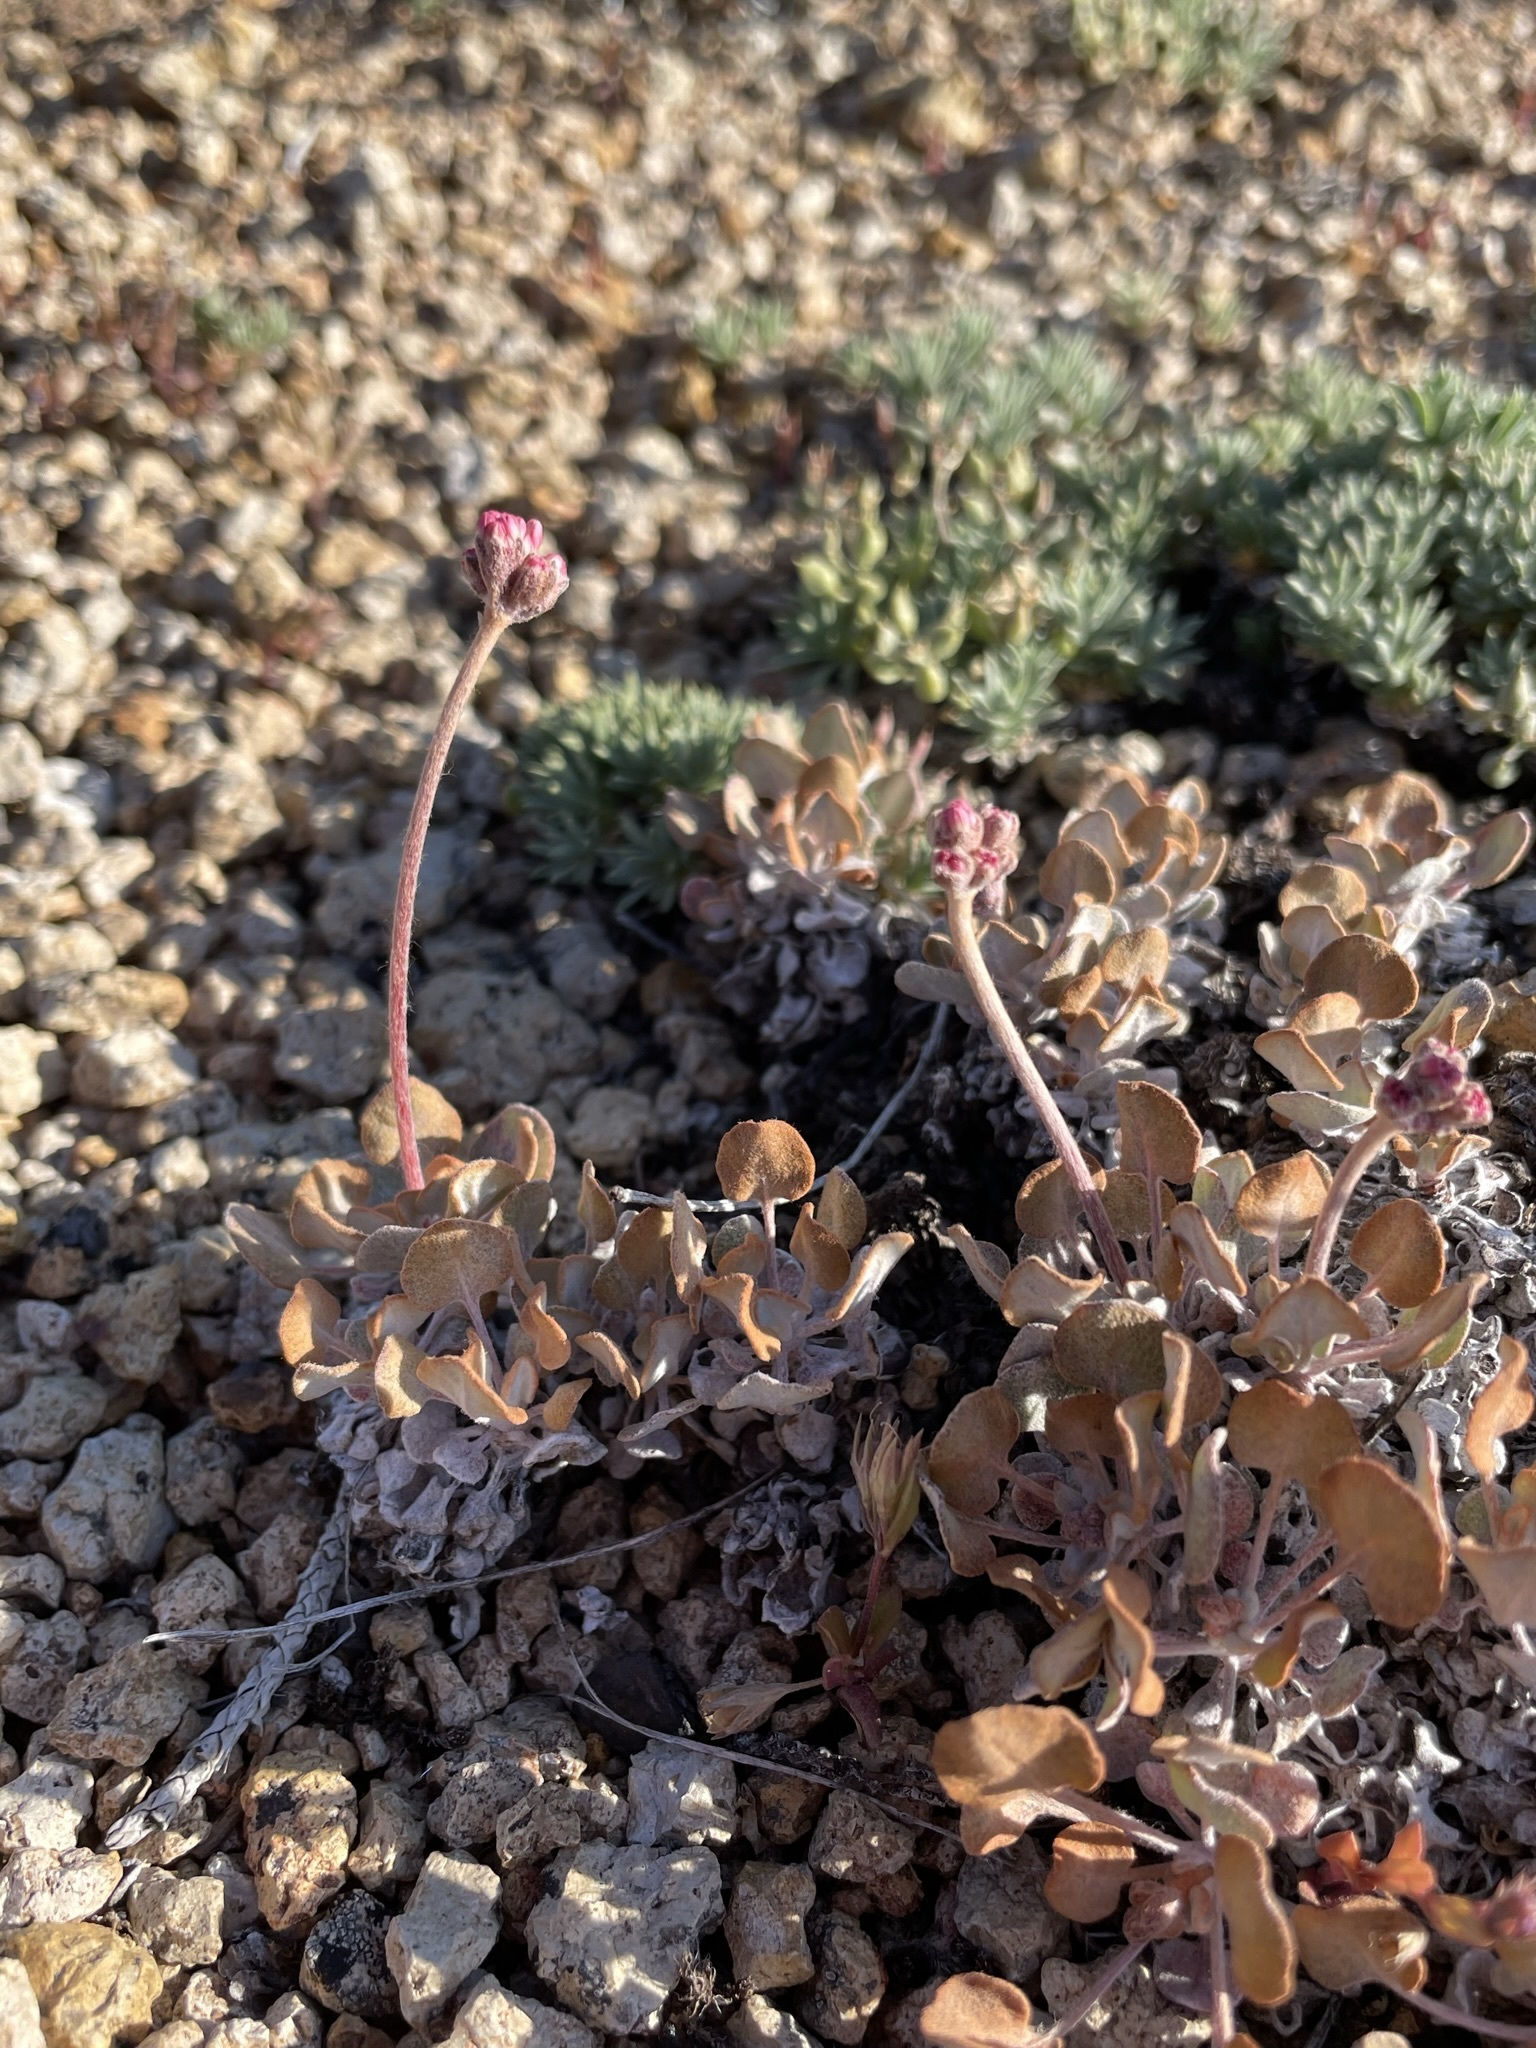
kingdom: Plantae
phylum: Tracheophyta
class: Magnoliopsida
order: Caryophyllales
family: Polygonaceae
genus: Eriogonum
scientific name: Eriogonum ovalifolium
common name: Cushion buckwheat
